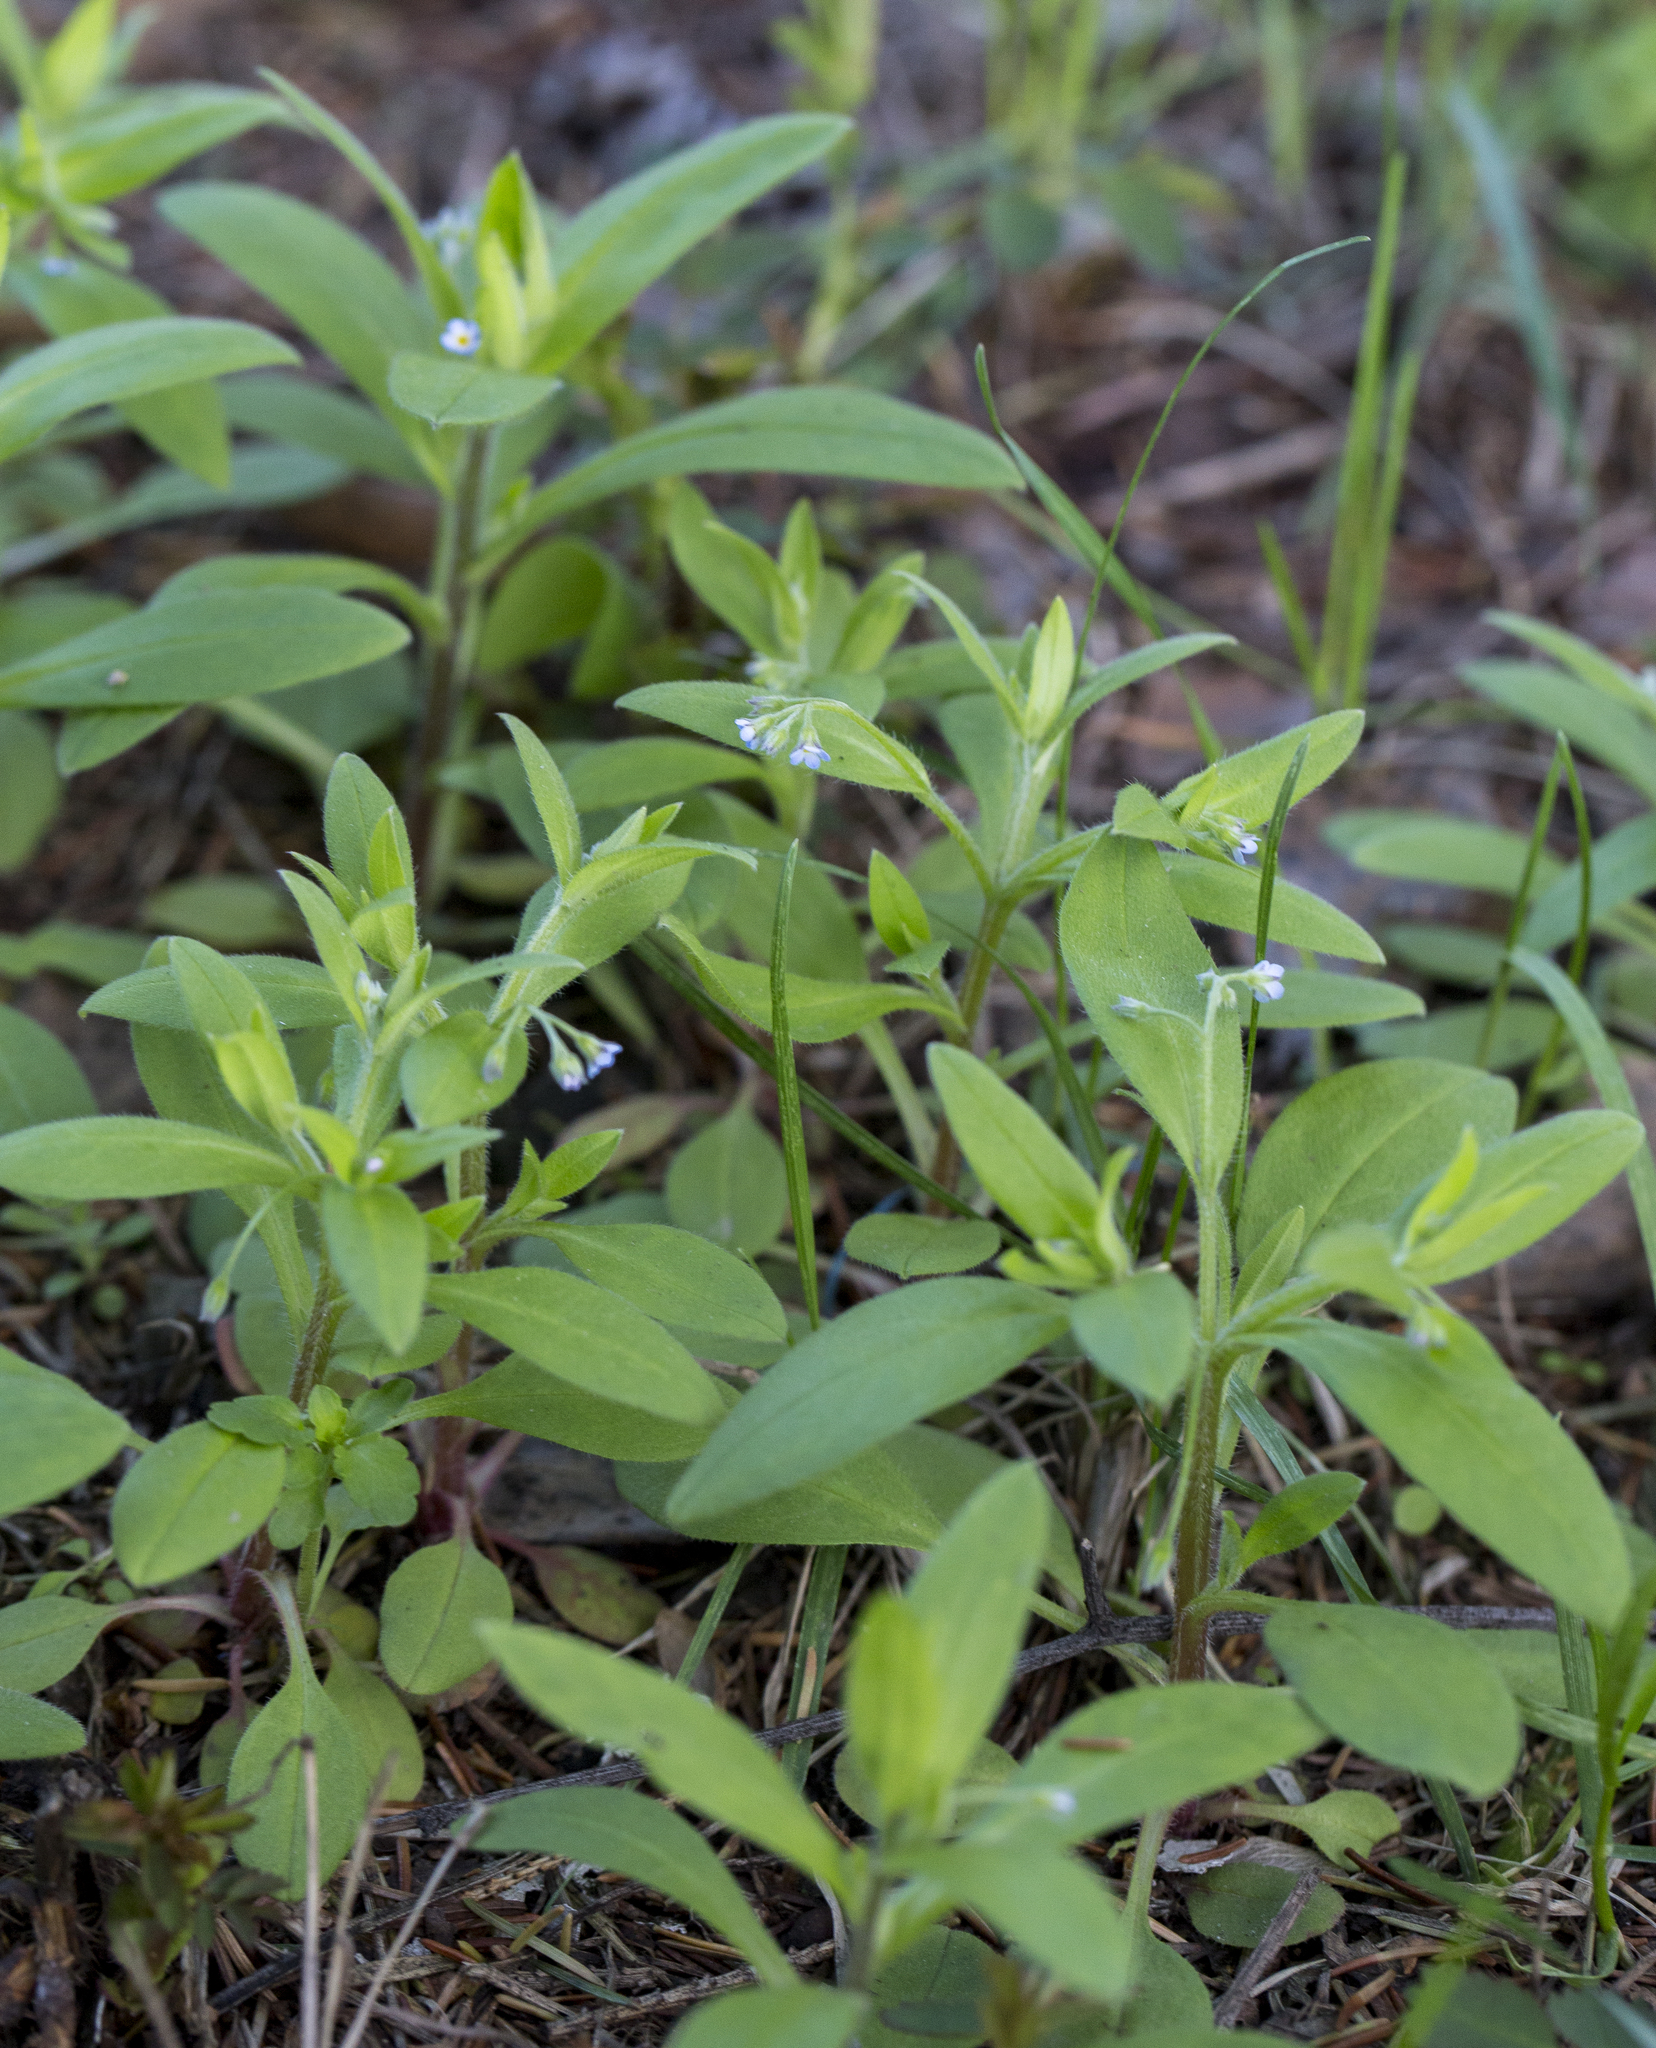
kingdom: Plantae
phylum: Tracheophyta
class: Magnoliopsida
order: Boraginales
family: Boraginaceae
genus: Myosotis
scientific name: Myosotis sparsiflora
